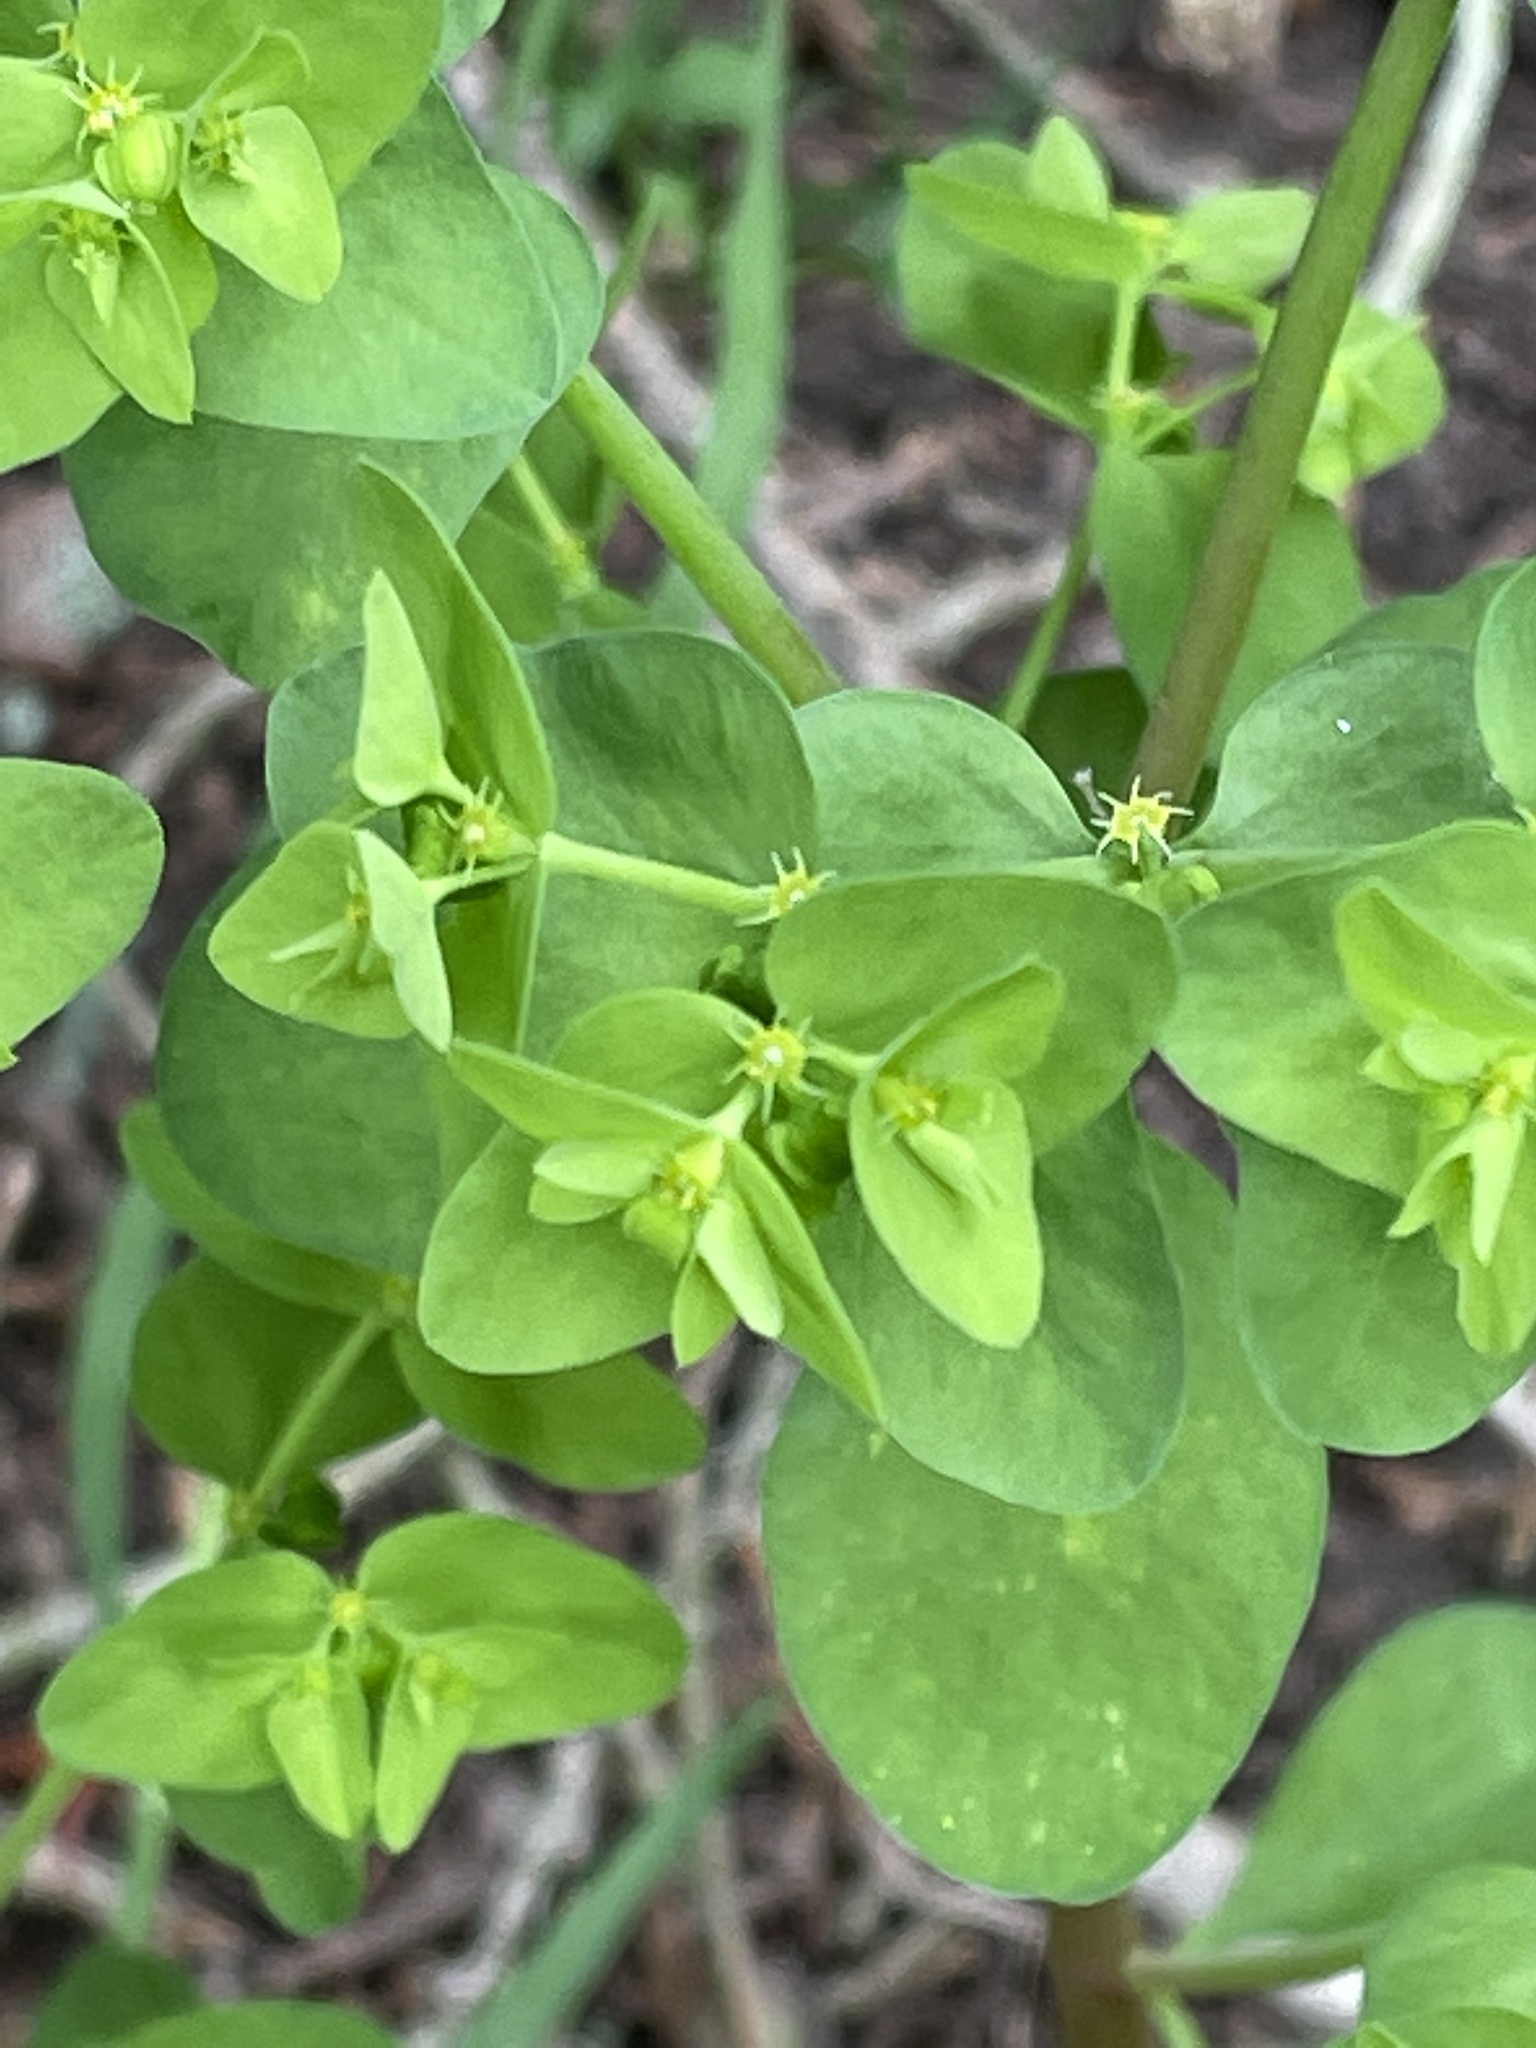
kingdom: Plantae
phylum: Tracheophyta
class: Magnoliopsida
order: Malpighiales
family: Euphorbiaceae
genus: Euphorbia
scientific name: Euphorbia peplus
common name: Petty spurge
